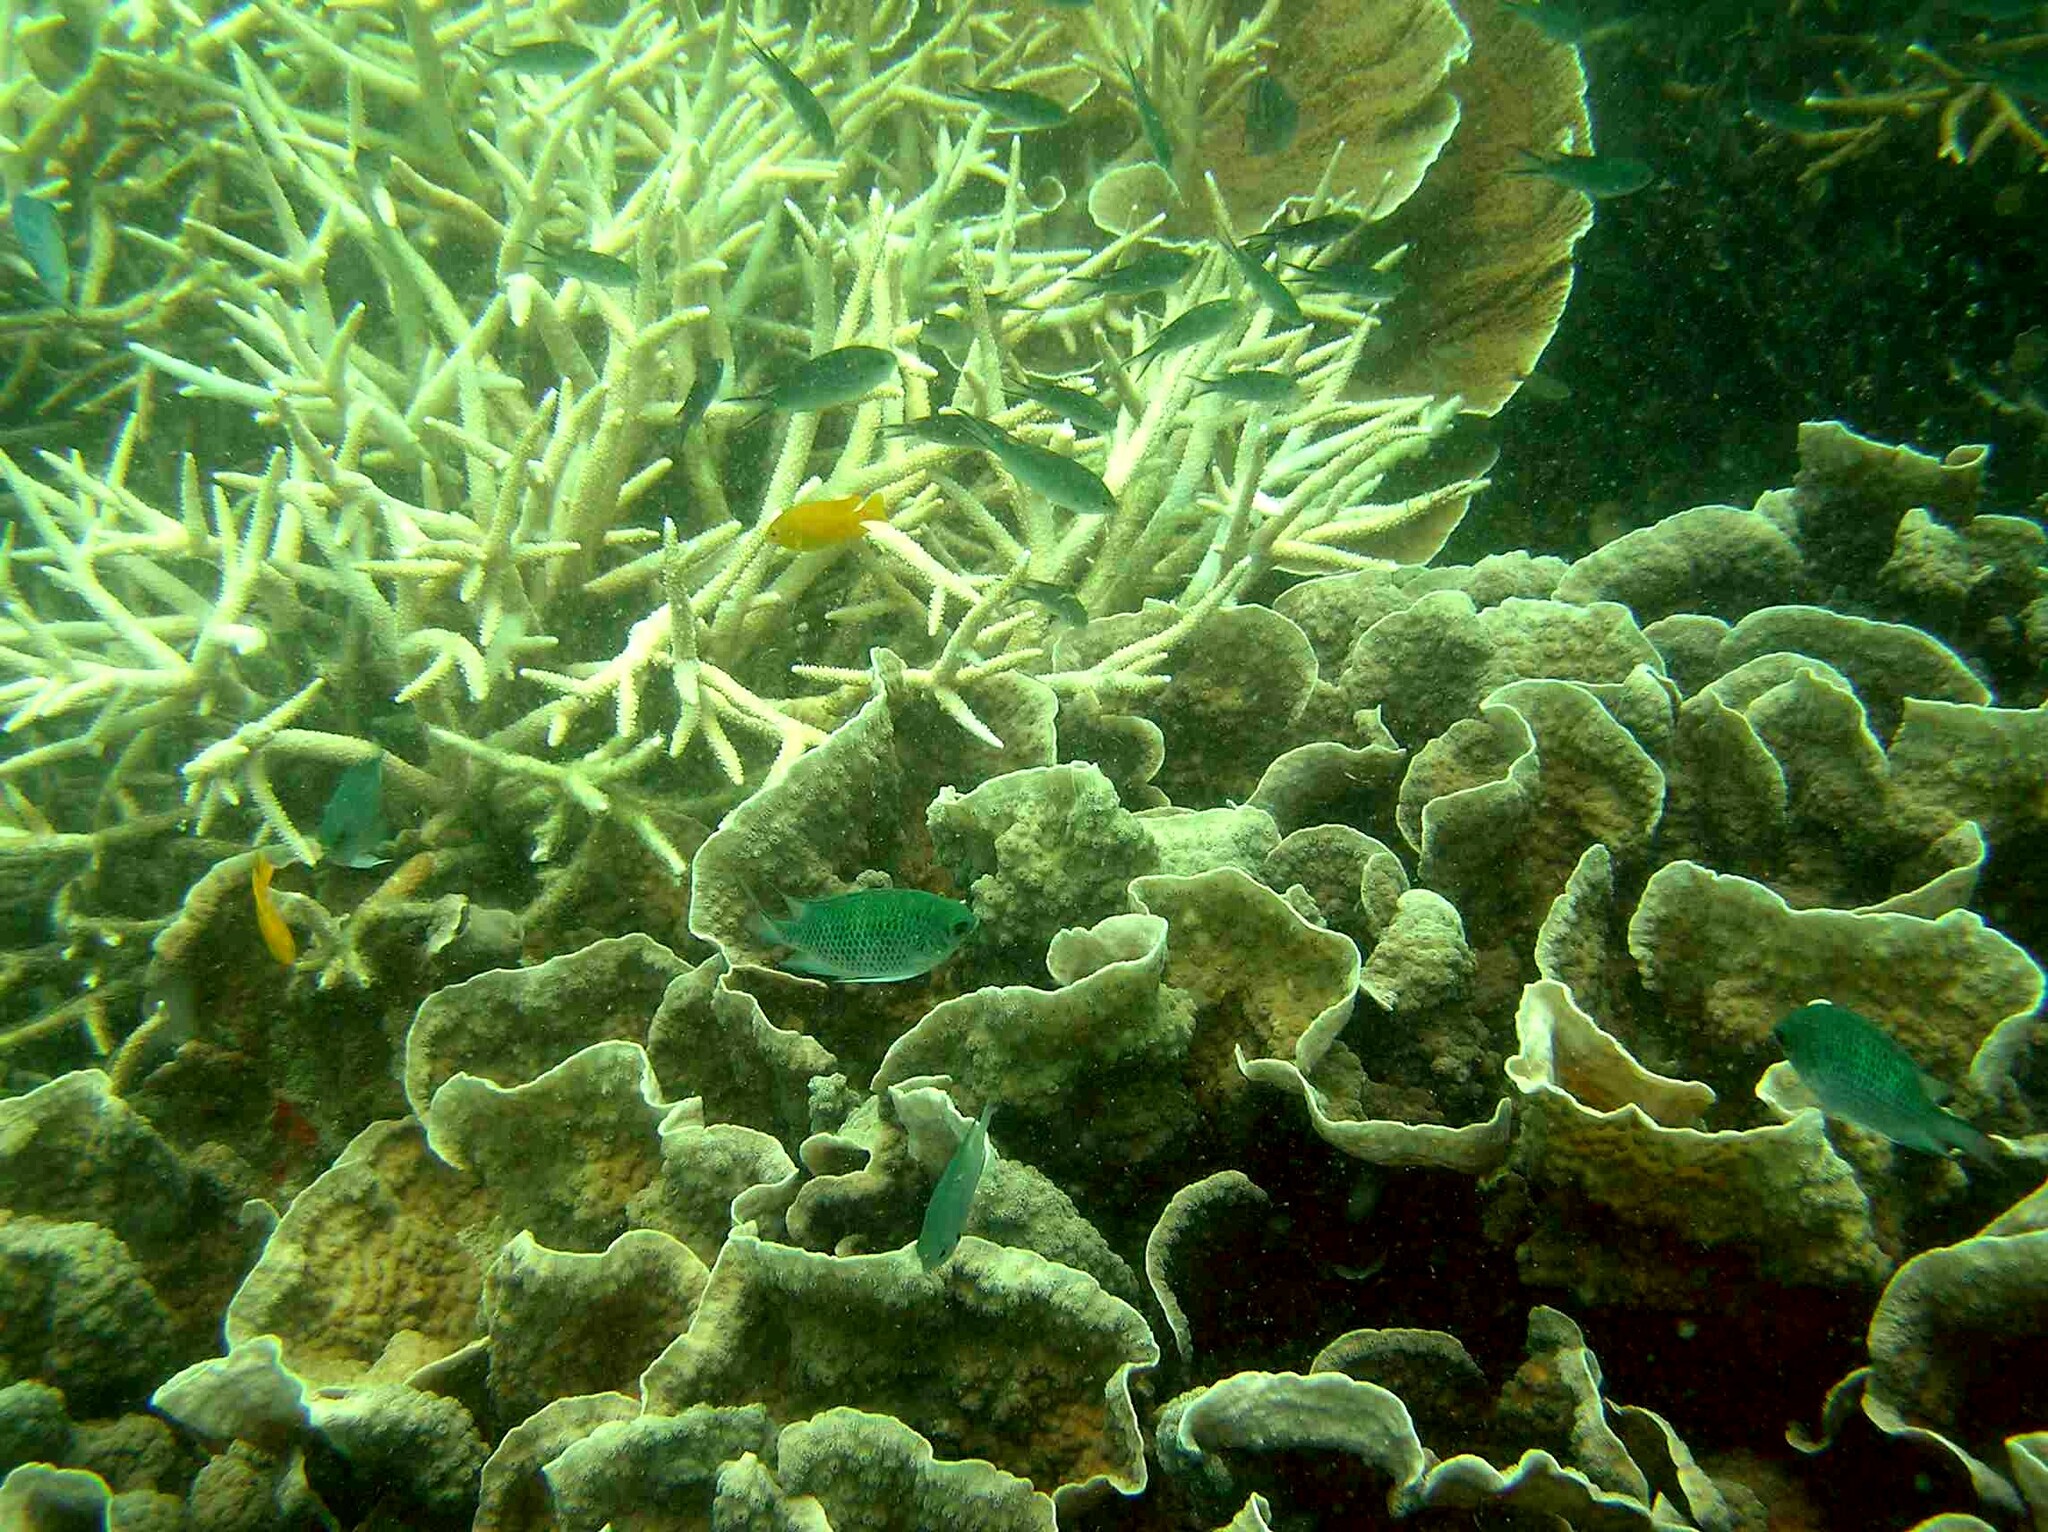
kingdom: Animalia
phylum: Chordata
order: Perciformes
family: Pomacentridae
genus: Chromis
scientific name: Chromis ternatensis
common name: Ternate chromis
